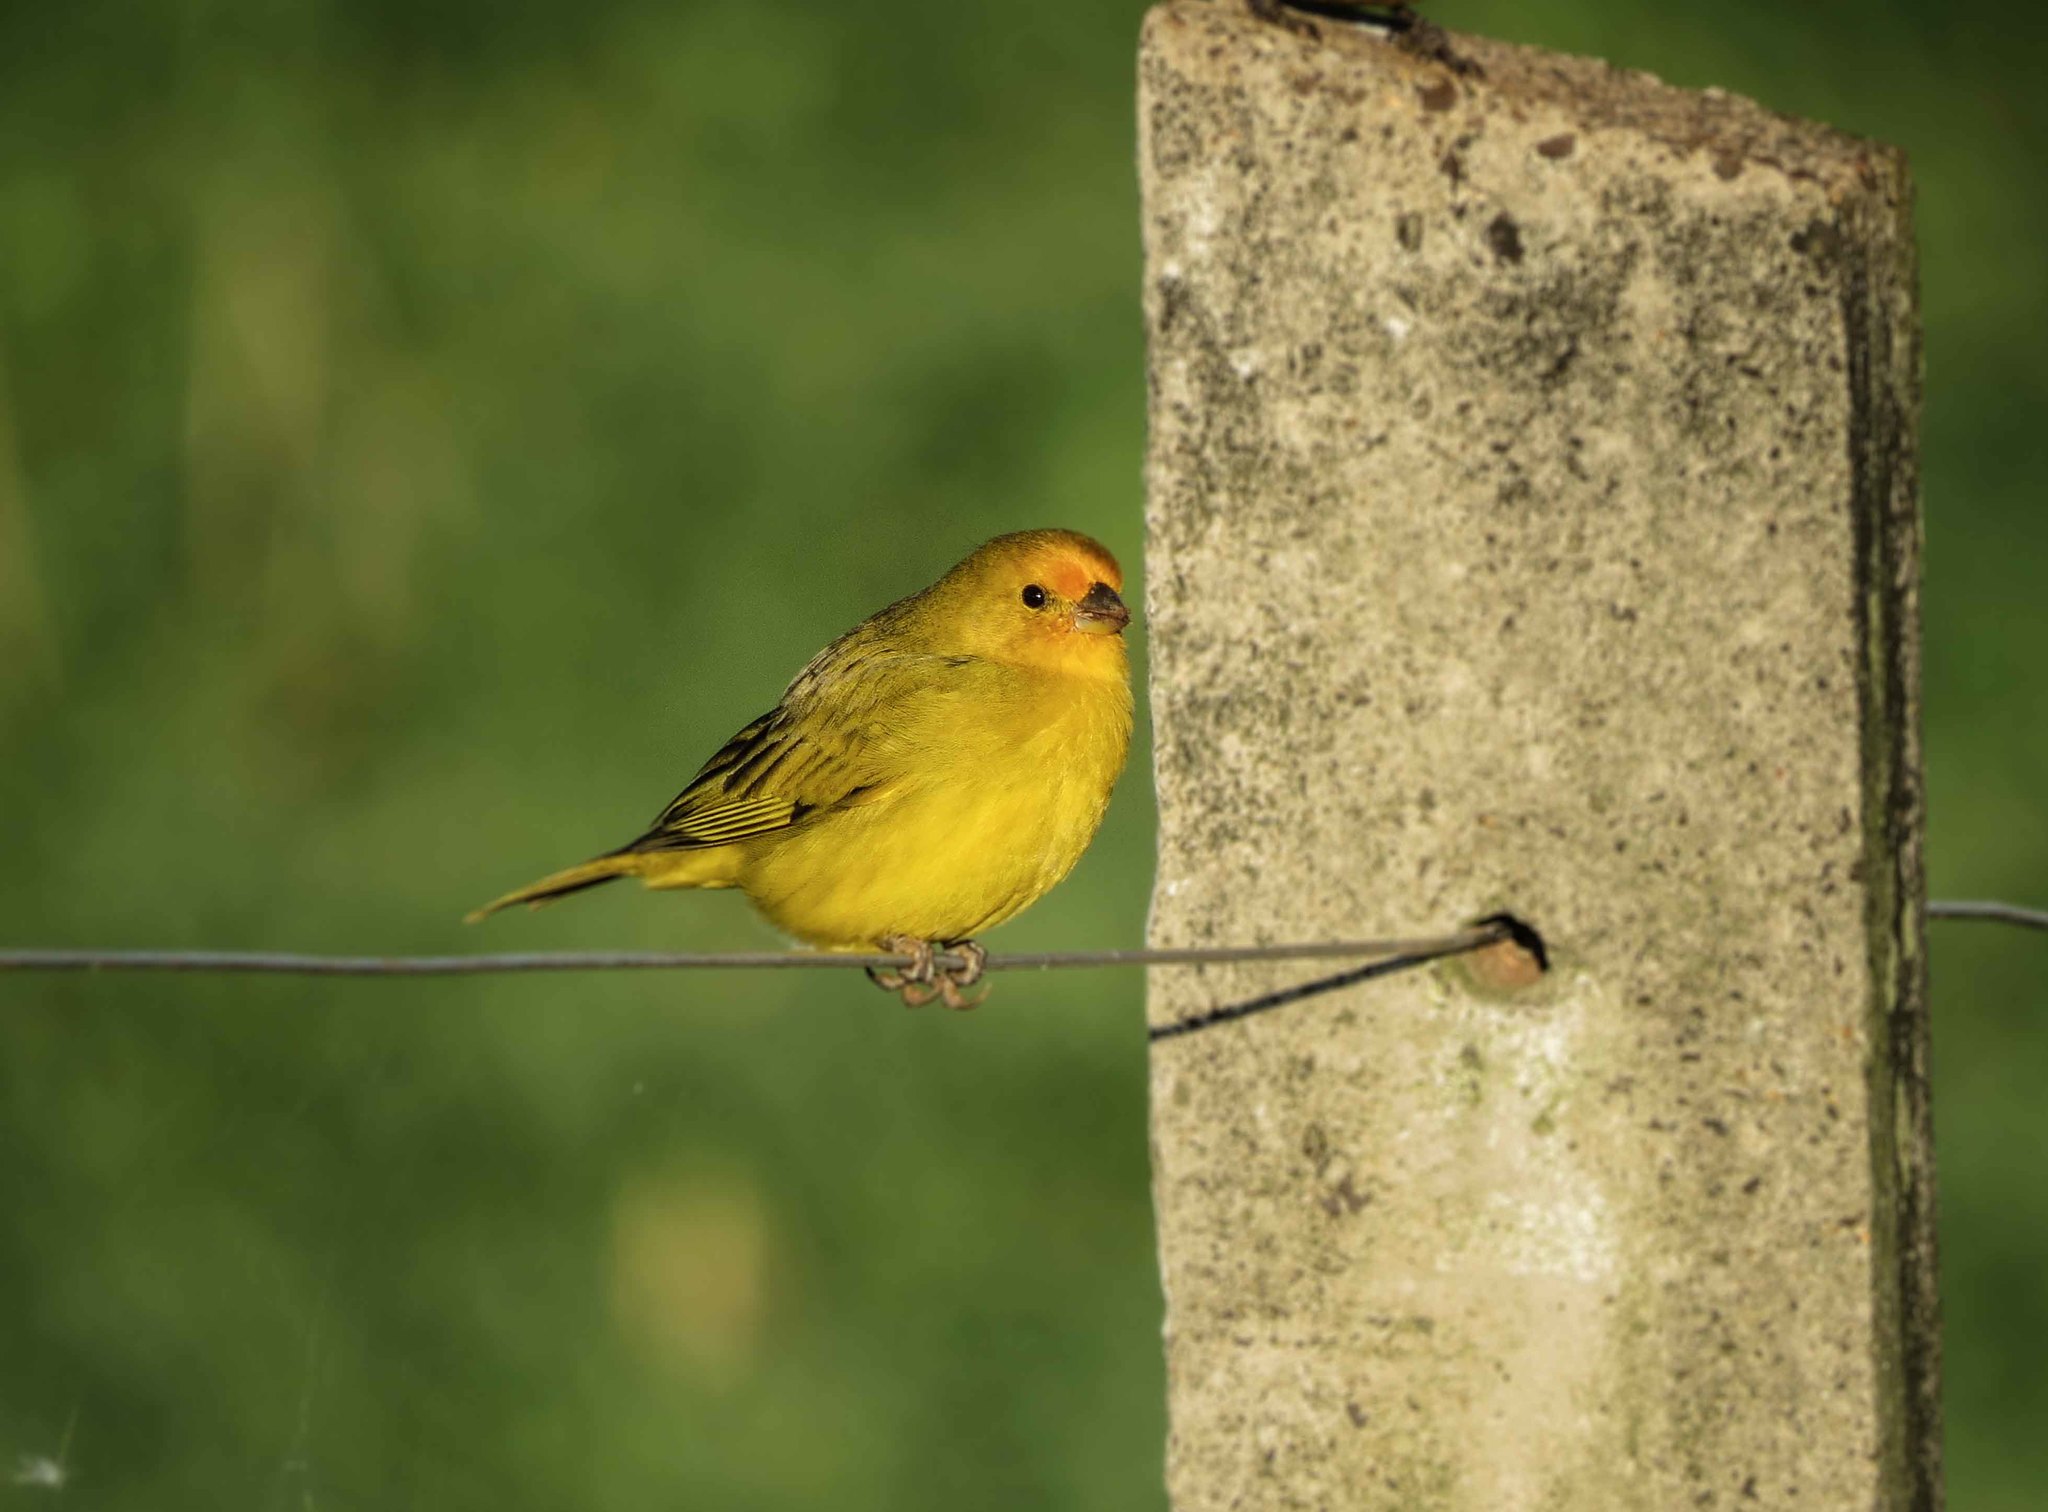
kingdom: Animalia
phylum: Chordata
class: Aves
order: Passeriformes
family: Thraupidae
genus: Sicalis
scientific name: Sicalis flaveola
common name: Saffron finch
